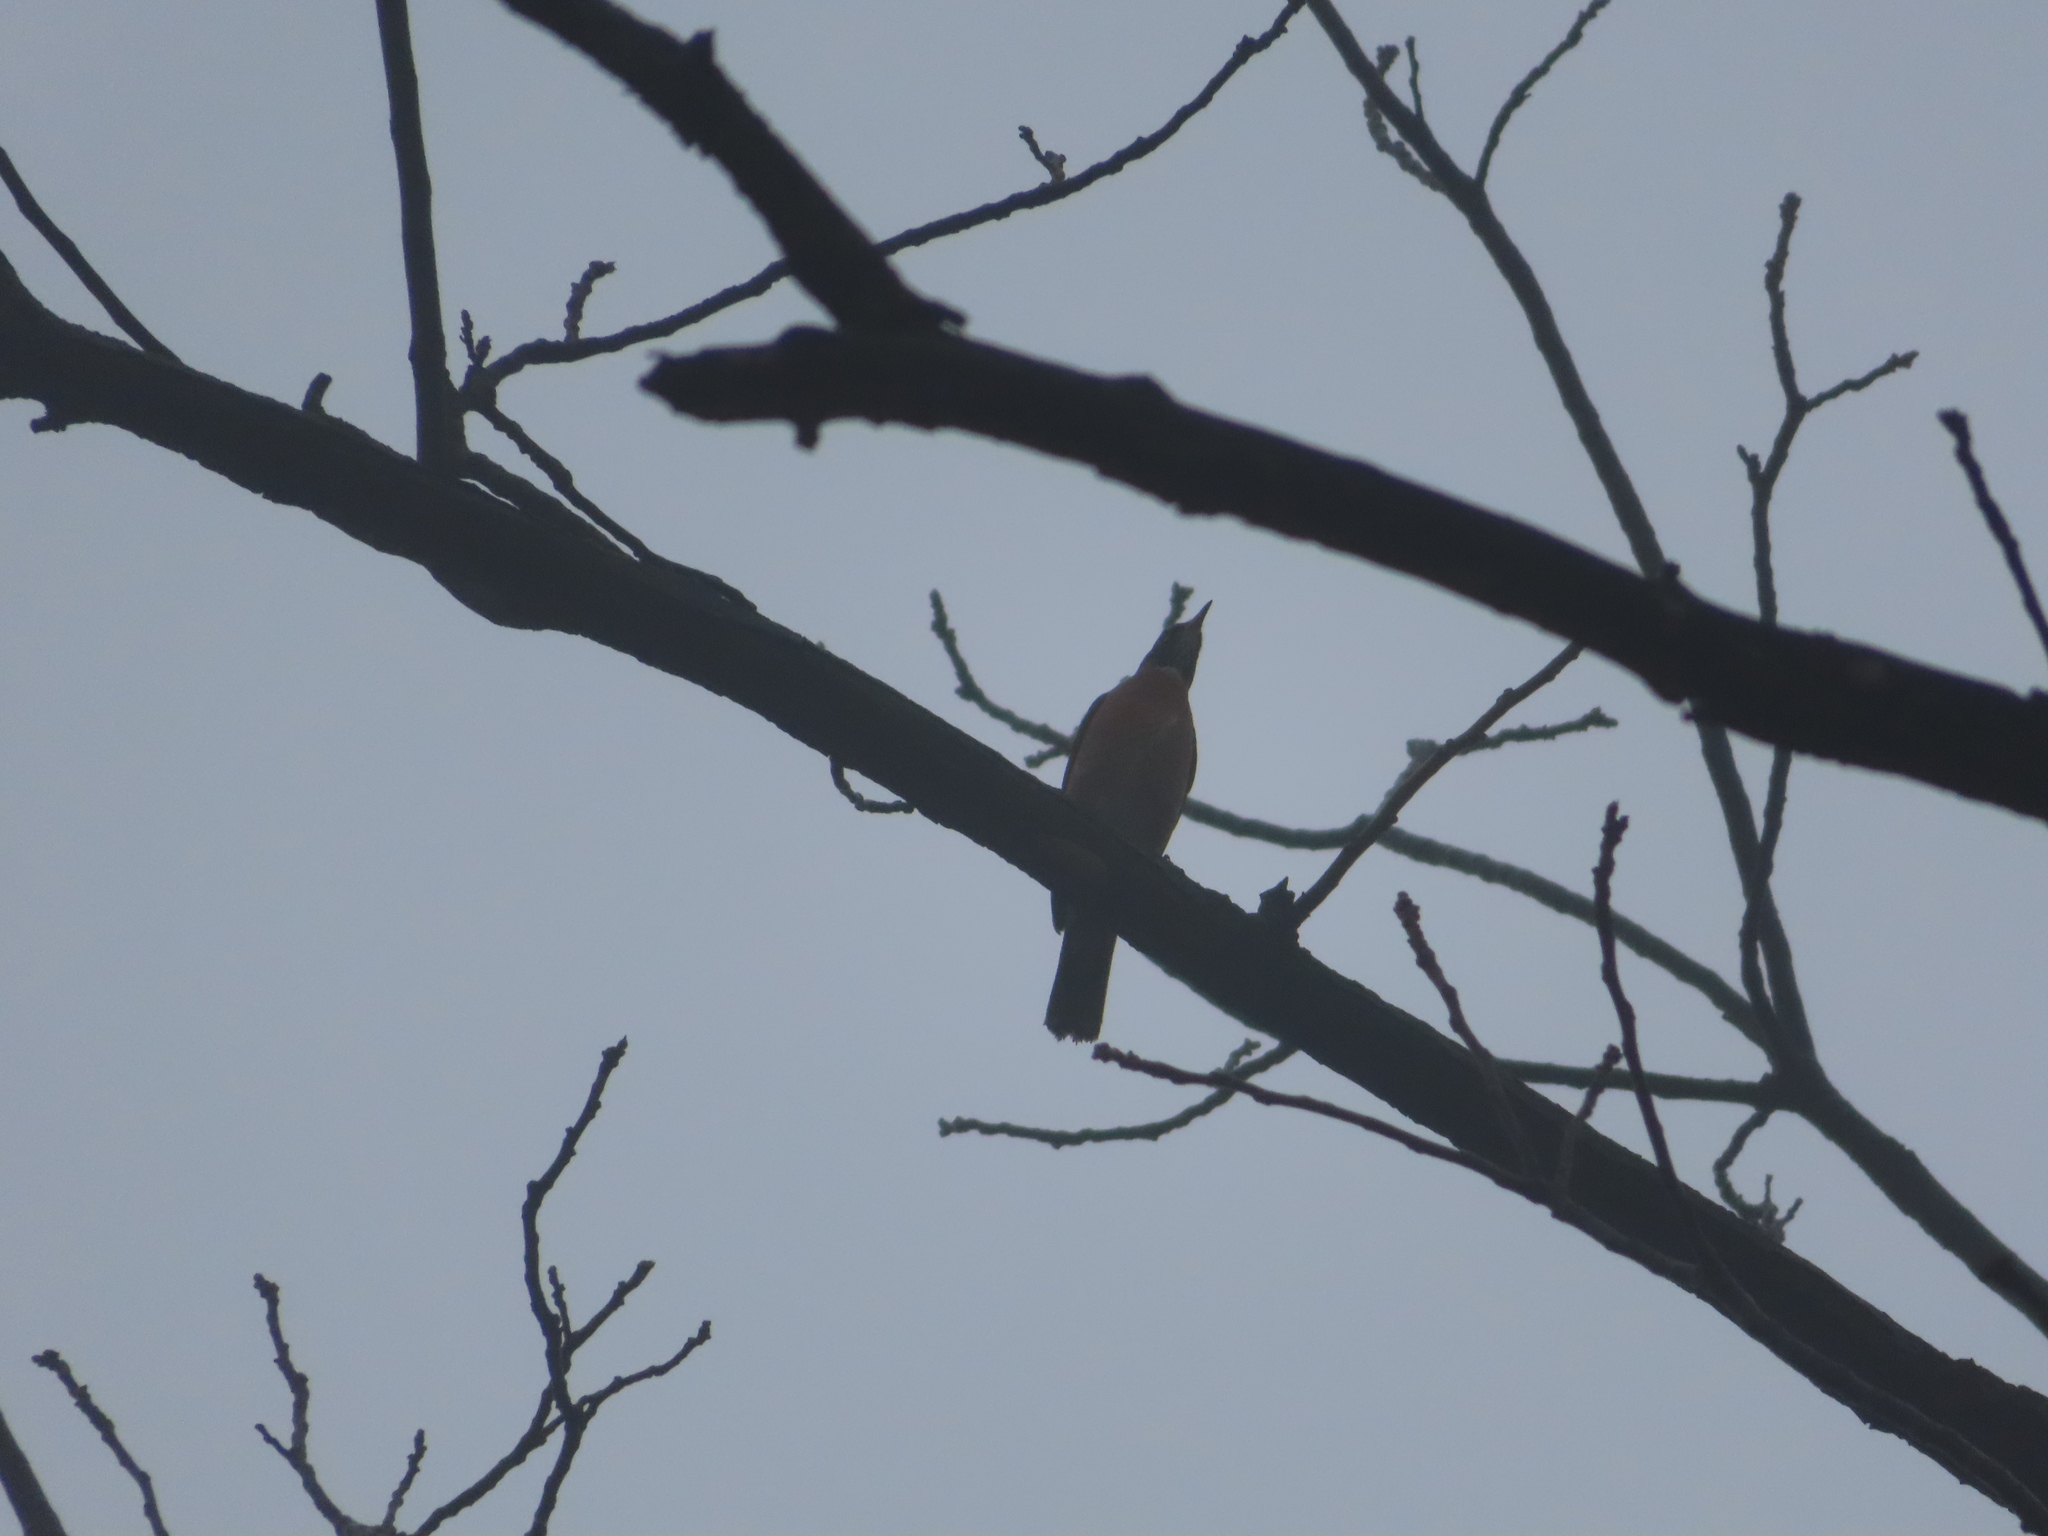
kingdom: Animalia
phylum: Chordata
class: Aves
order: Passeriformes
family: Turdidae
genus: Turdus
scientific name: Turdus migratorius
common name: American robin
